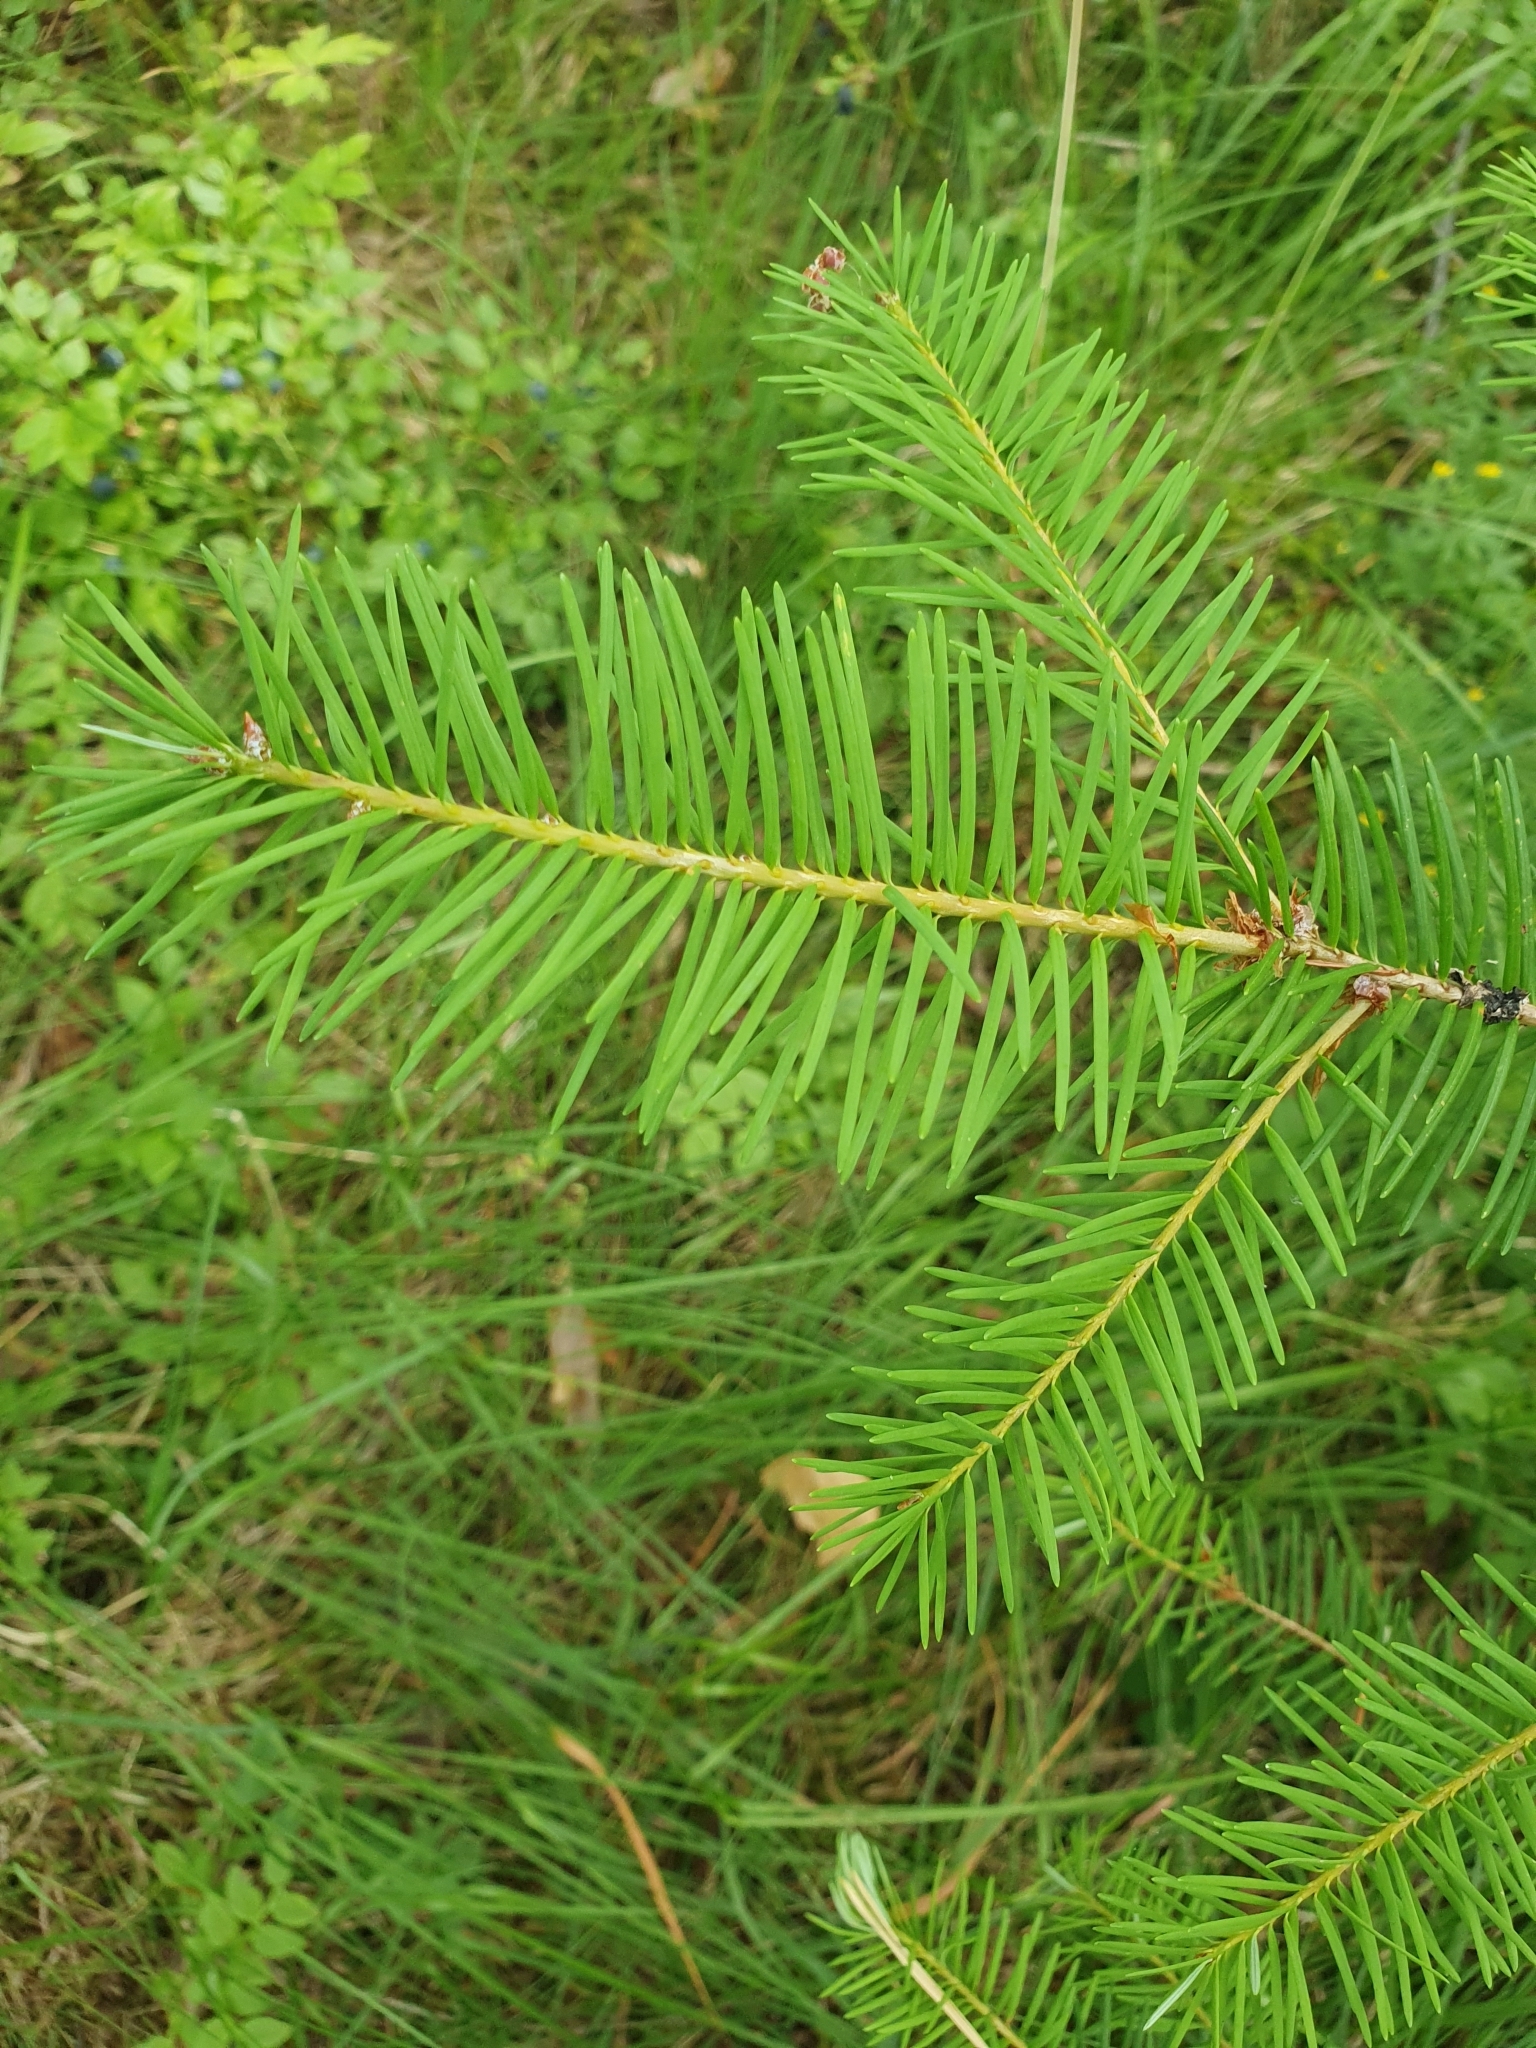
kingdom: Plantae
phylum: Tracheophyta
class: Pinopsida
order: Pinales
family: Pinaceae
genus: Pseudotsuga
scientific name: Pseudotsuga menziesii
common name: Douglas fir
